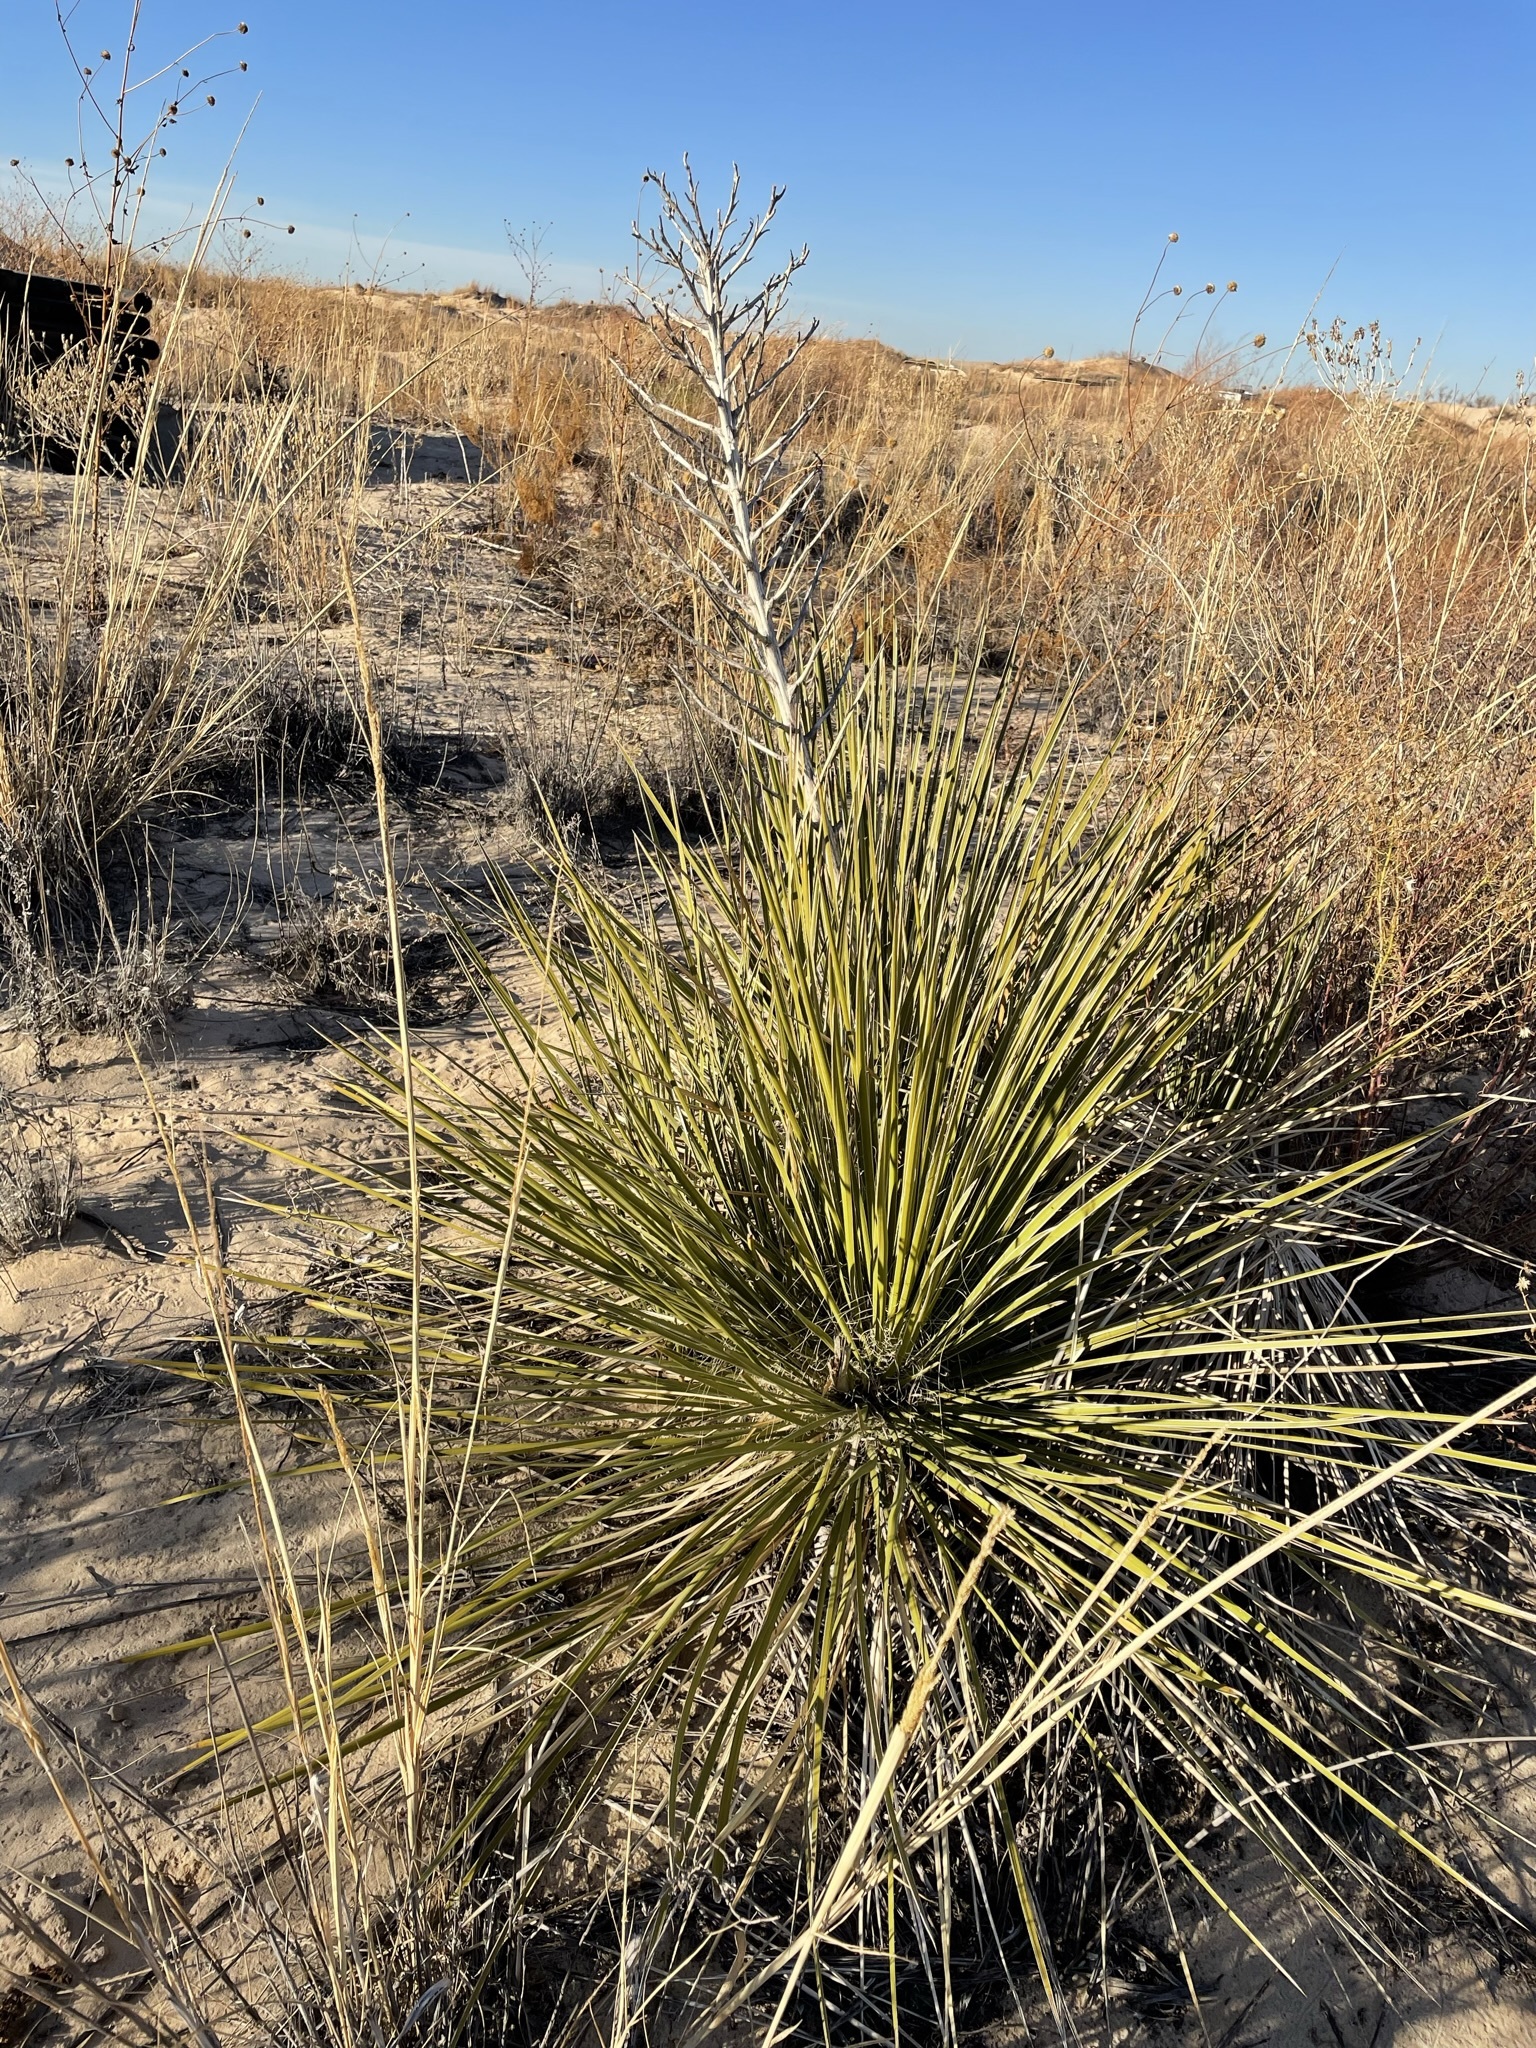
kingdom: Plantae
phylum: Tracheophyta
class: Liliopsida
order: Asparagales
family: Asparagaceae
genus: Yucca
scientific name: Yucca campestris
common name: Plains yucca
